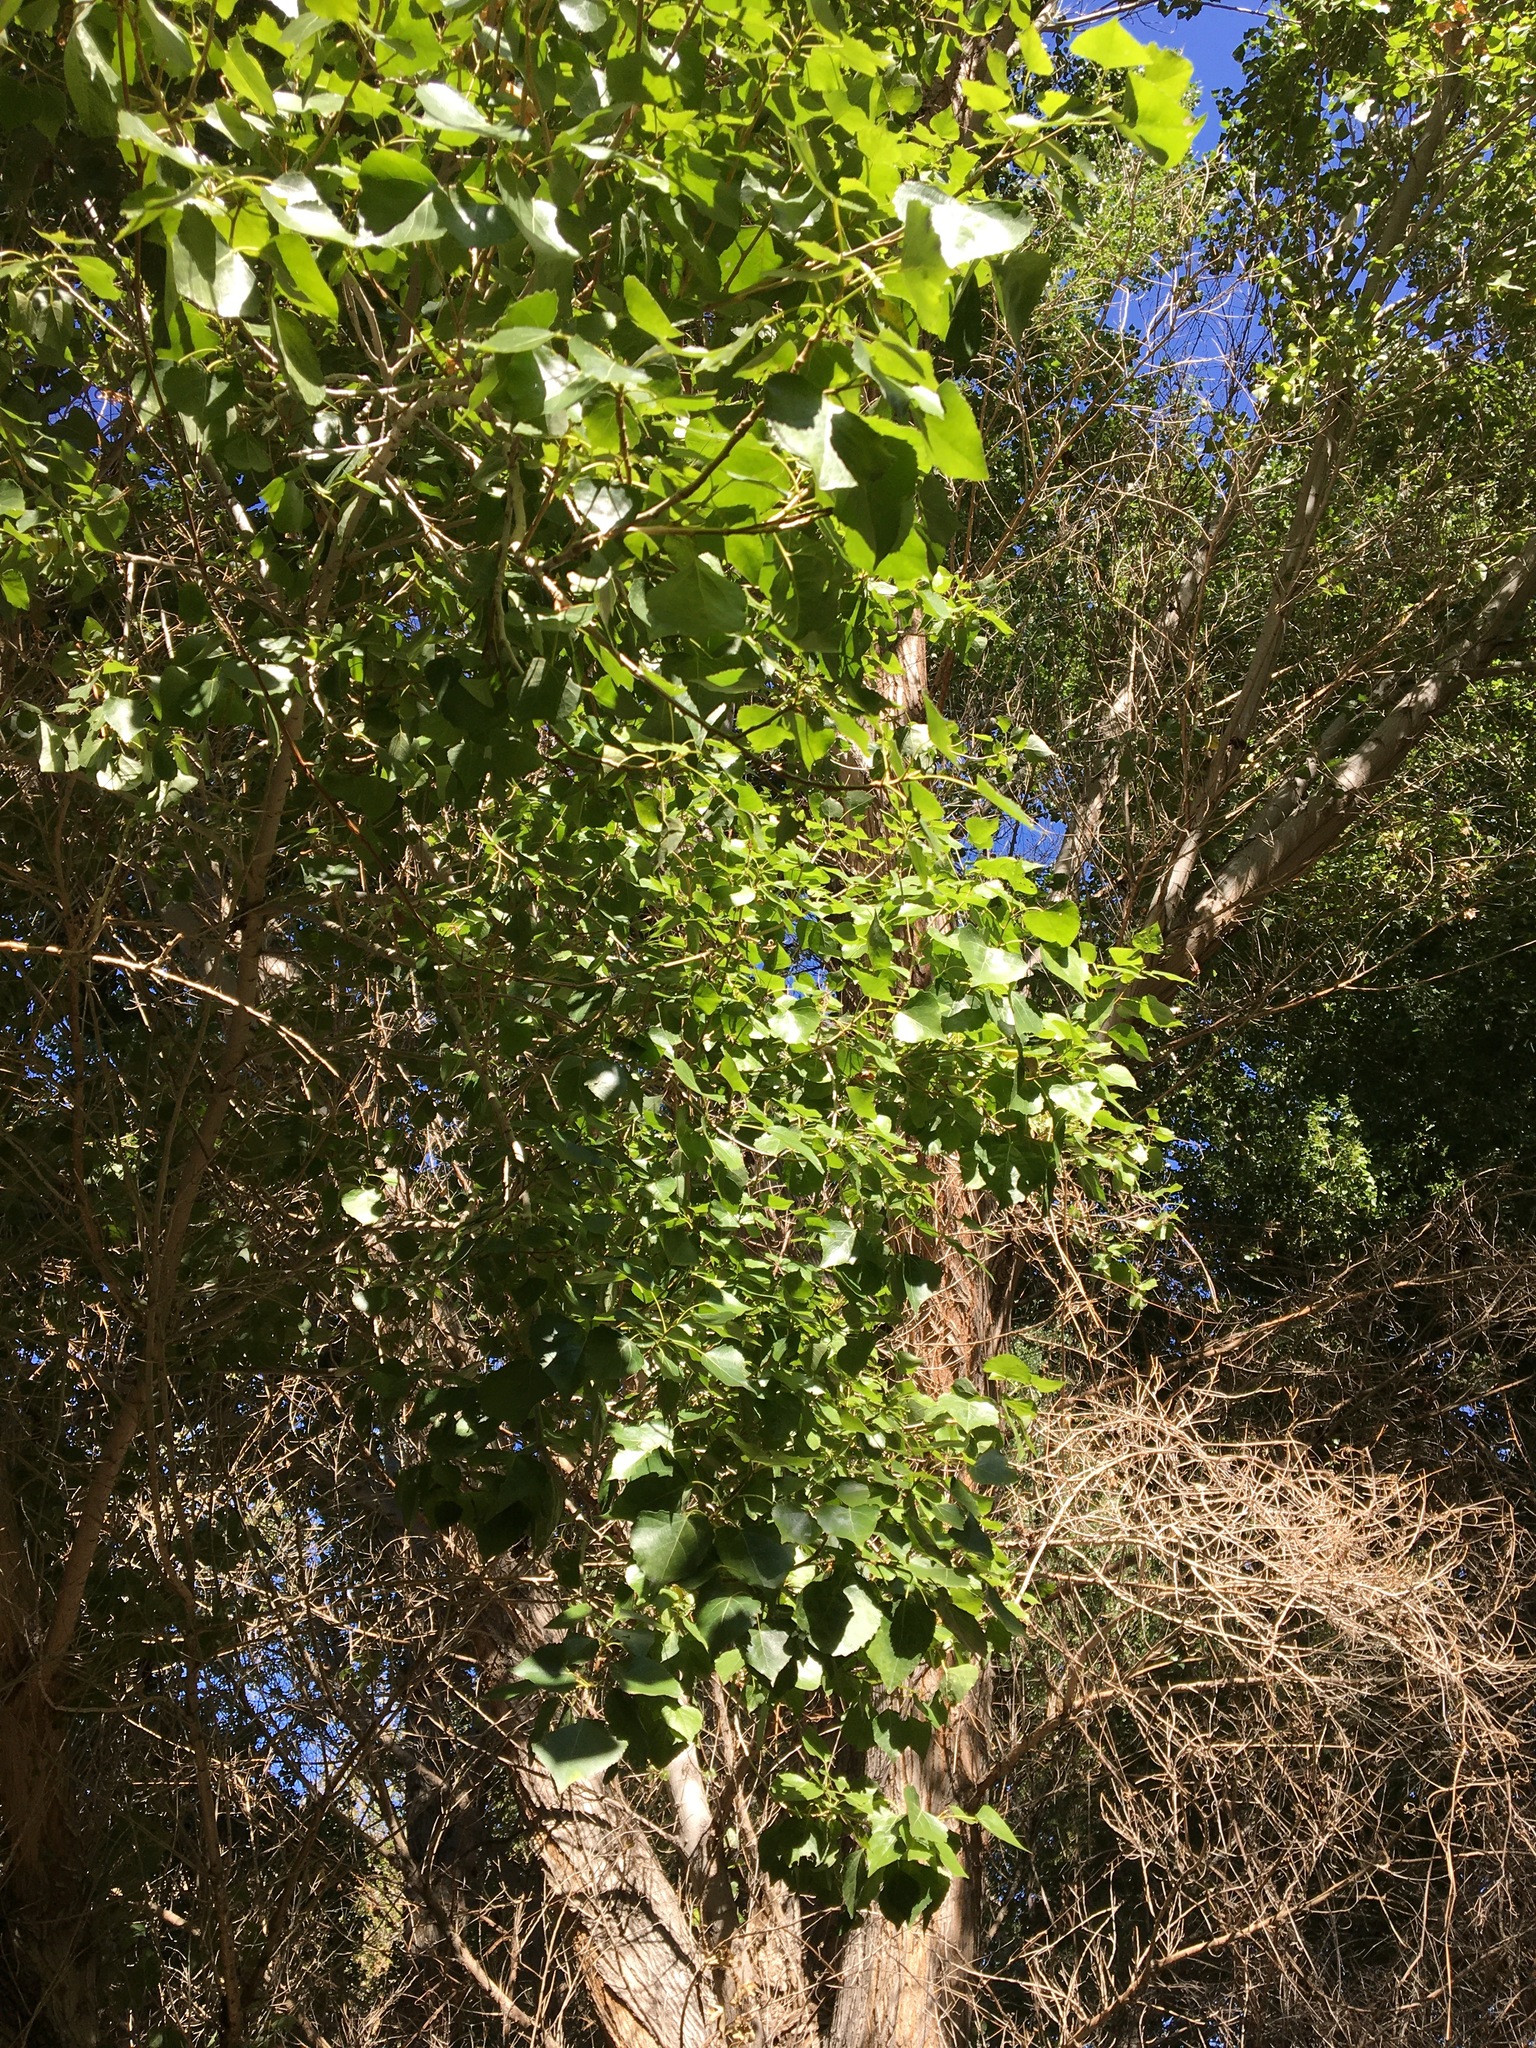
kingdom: Plantae
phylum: Tracheophyta
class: Magnoliopsida
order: Malpighiales
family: Salicaceae
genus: Populus
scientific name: Populus fremontii
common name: Fremont's cottonwood
